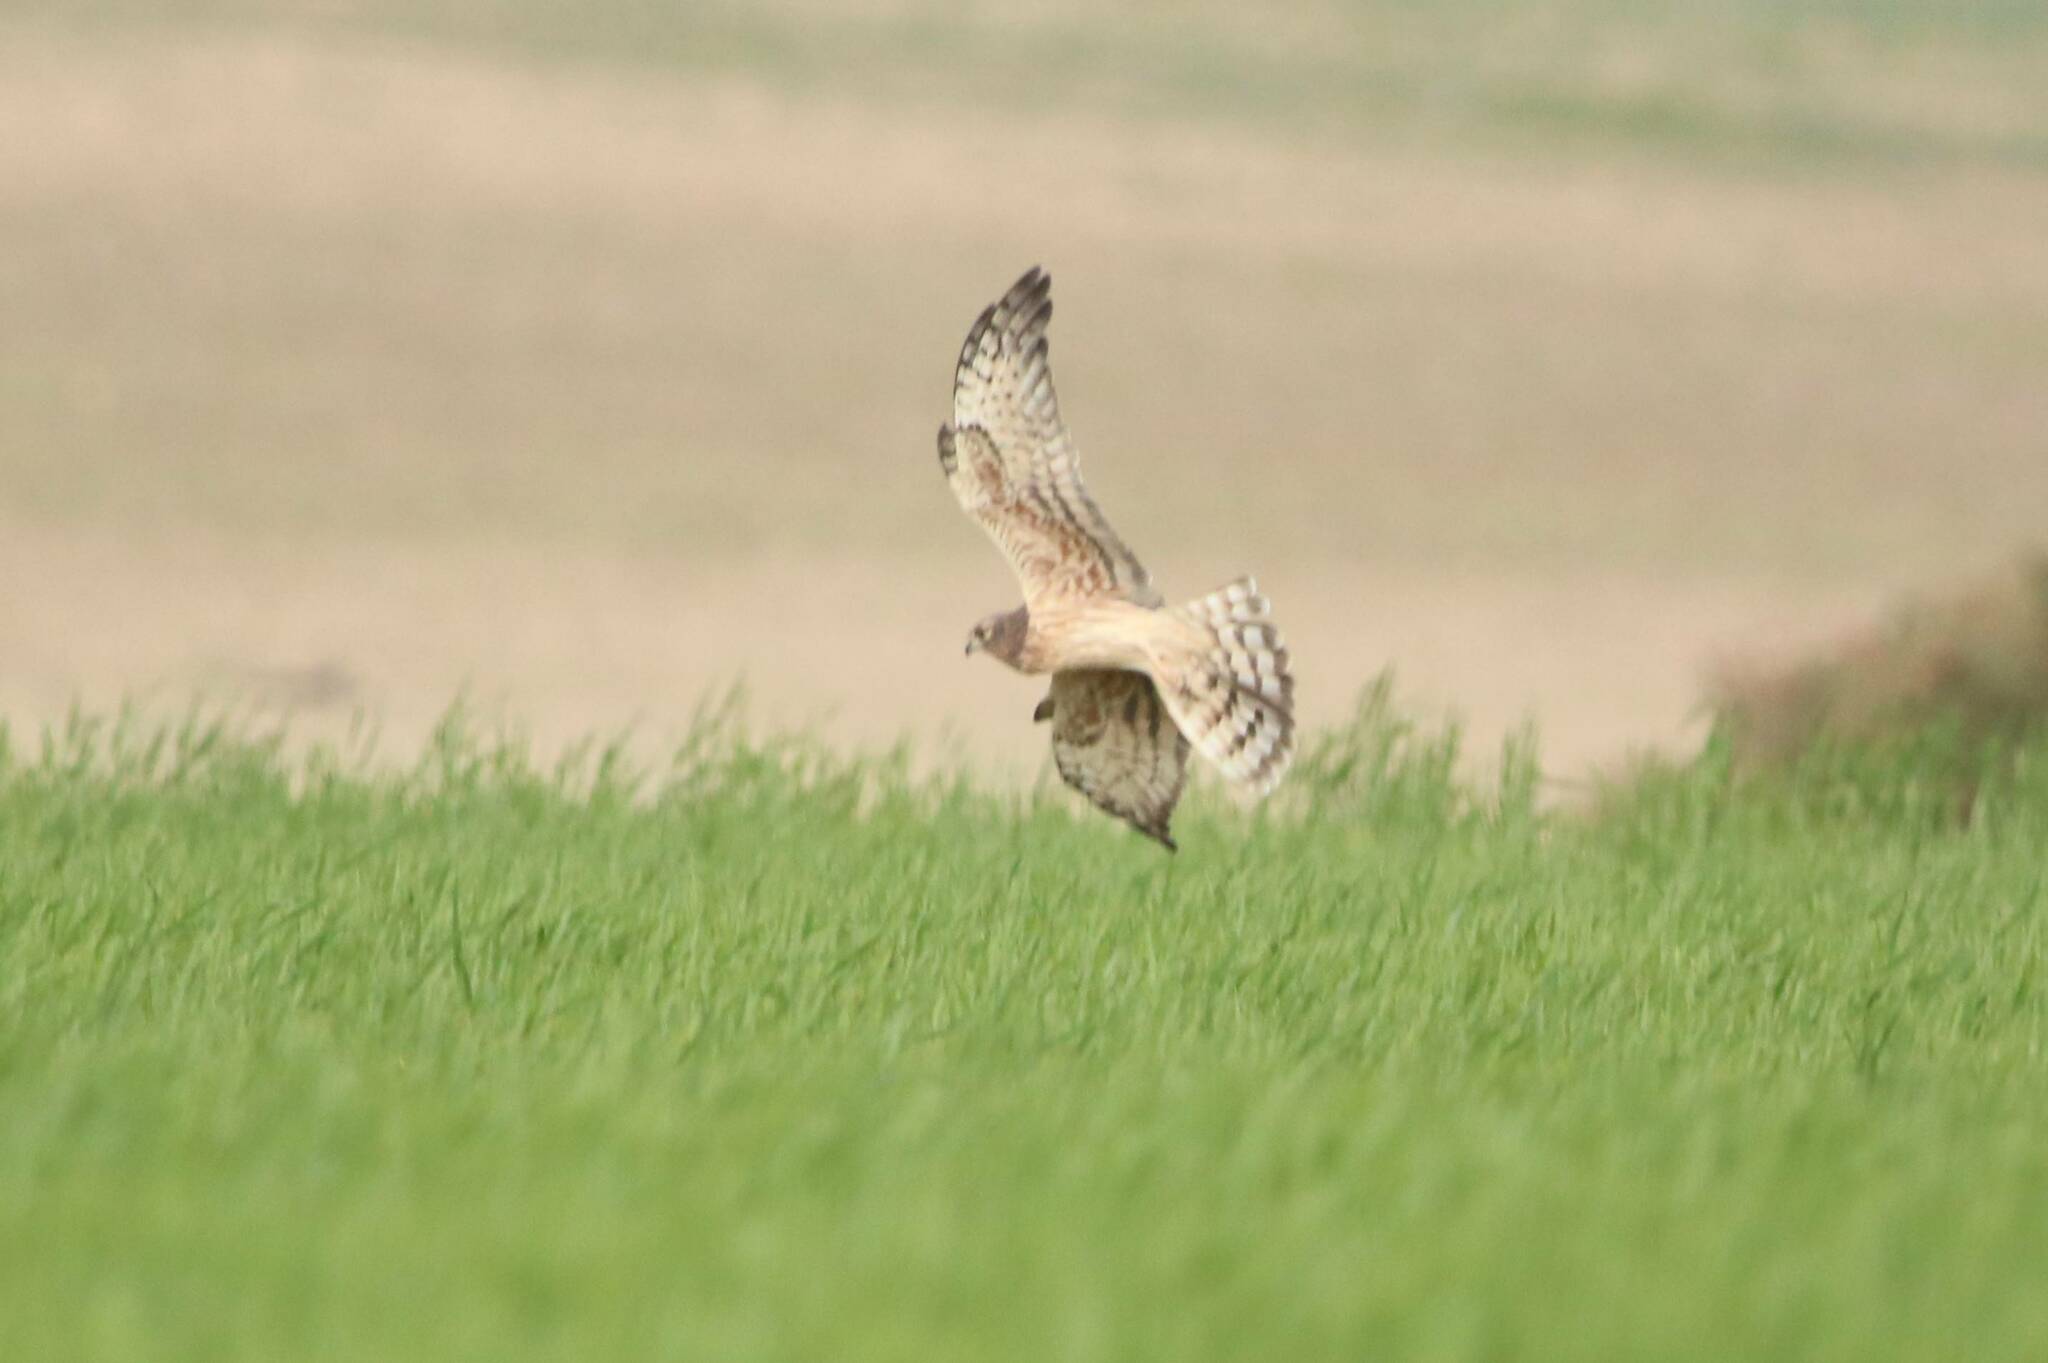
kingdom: Animalia
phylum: Chordata
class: Aves
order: Accipitriformes
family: Accipitridae
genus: Circus
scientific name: Circus pygargus
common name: Montagu's harrier
